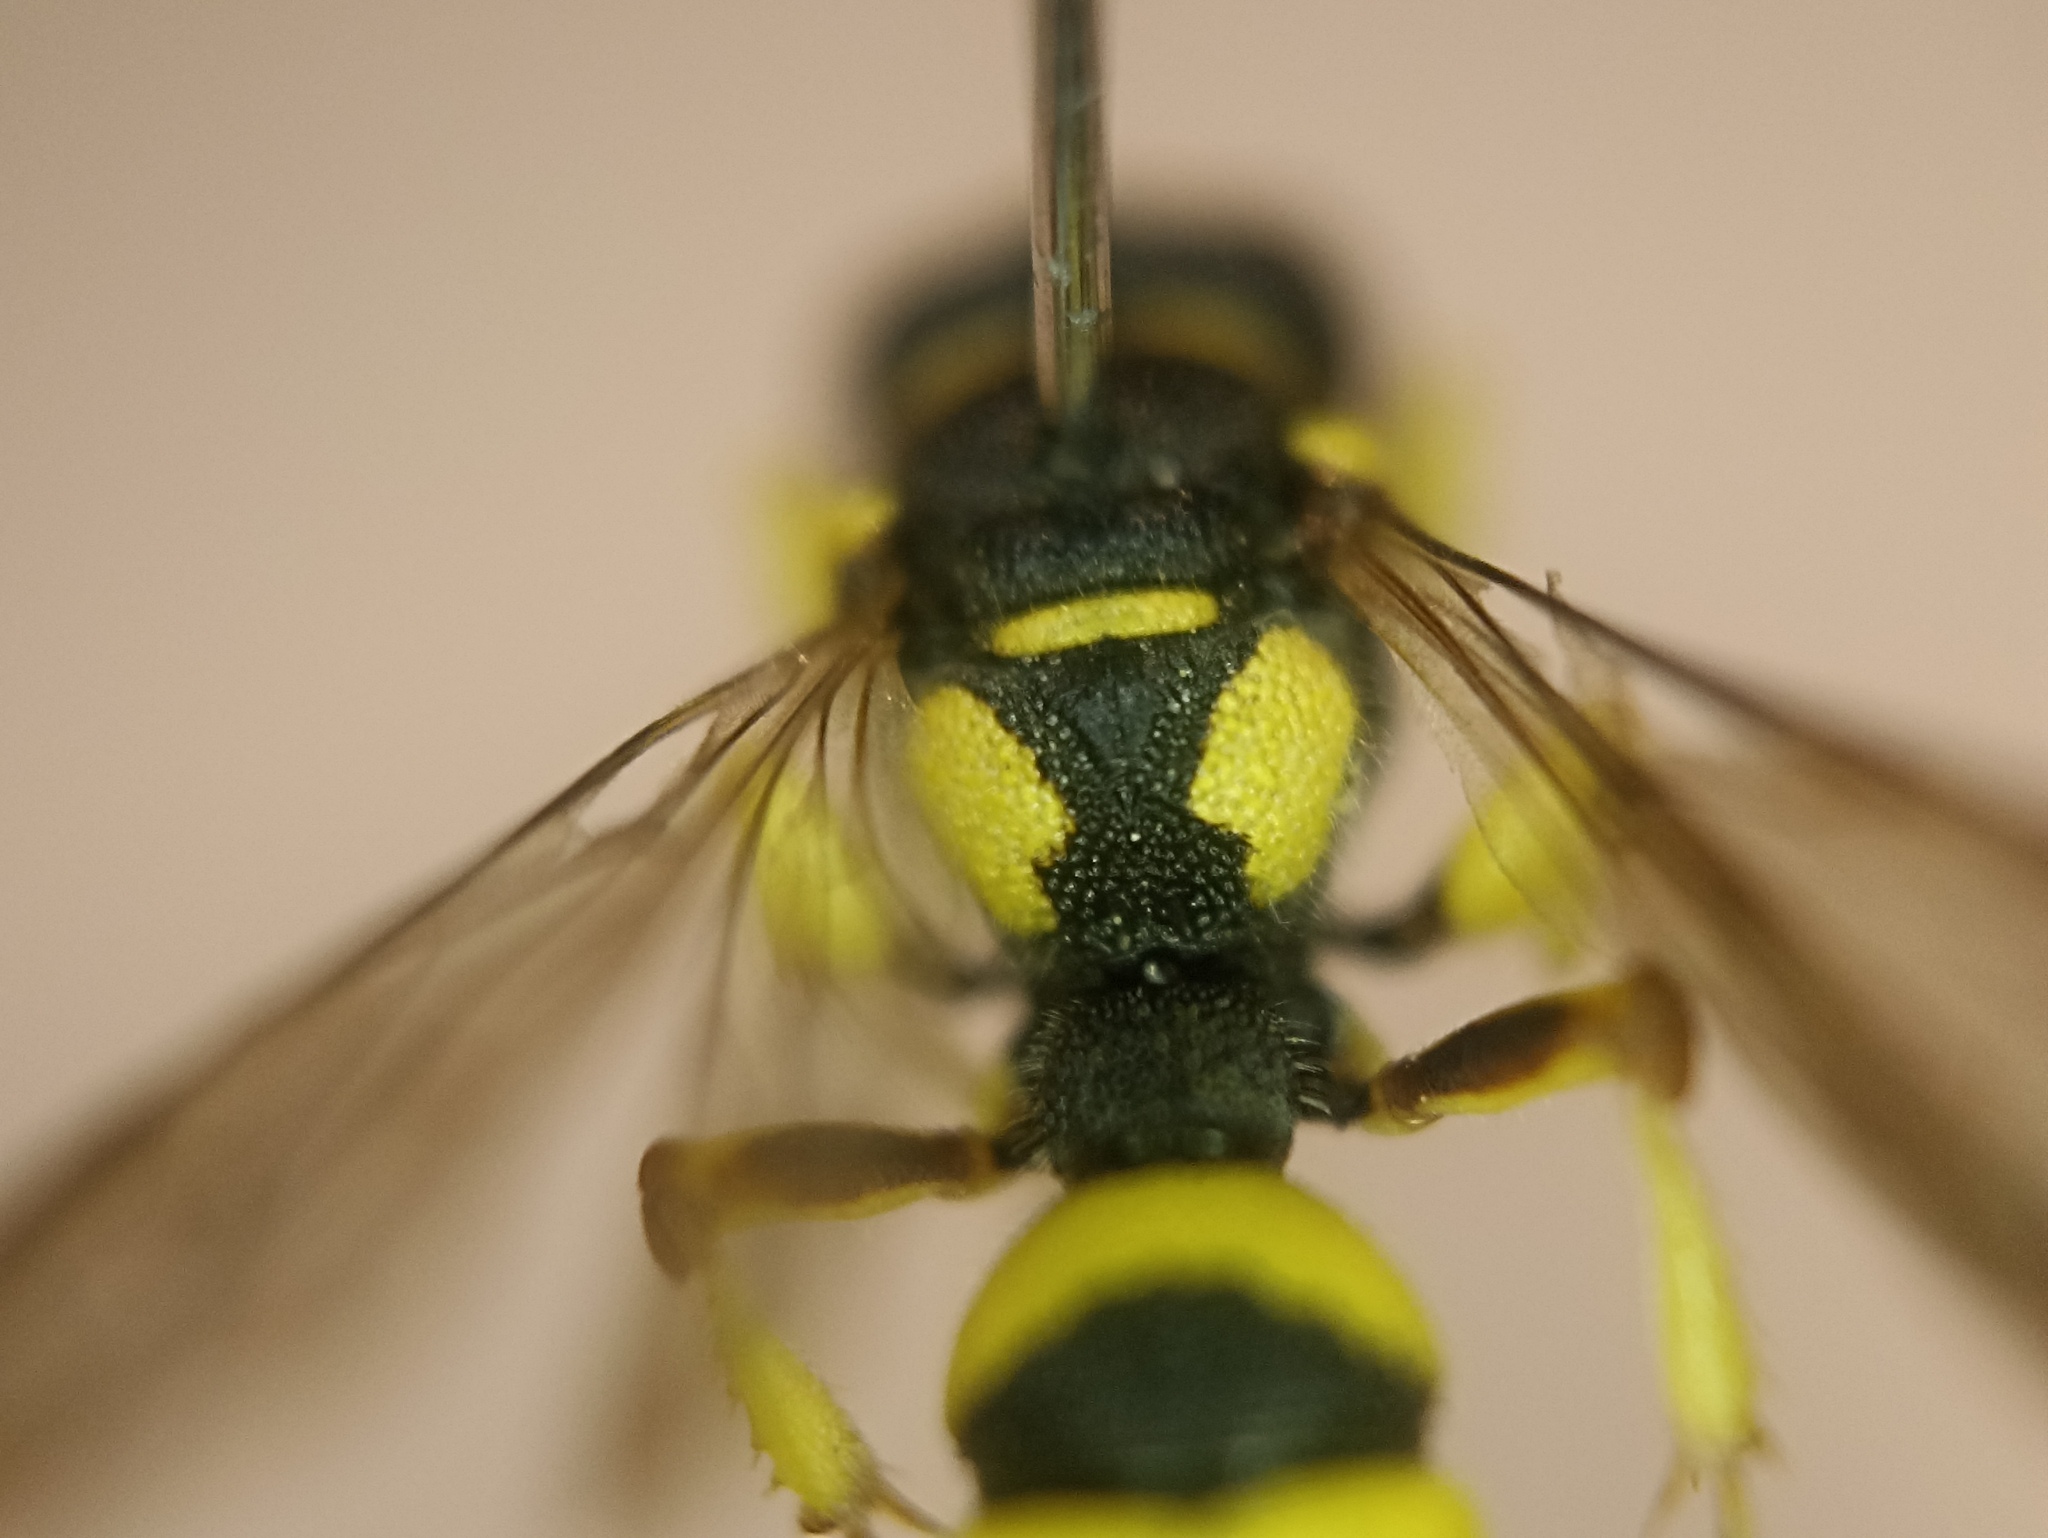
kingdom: Animalia
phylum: Arthropoda
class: Insecta
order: Hymenoptera
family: Crabronidae
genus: Cerceris
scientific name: Cerceris sabulosa
